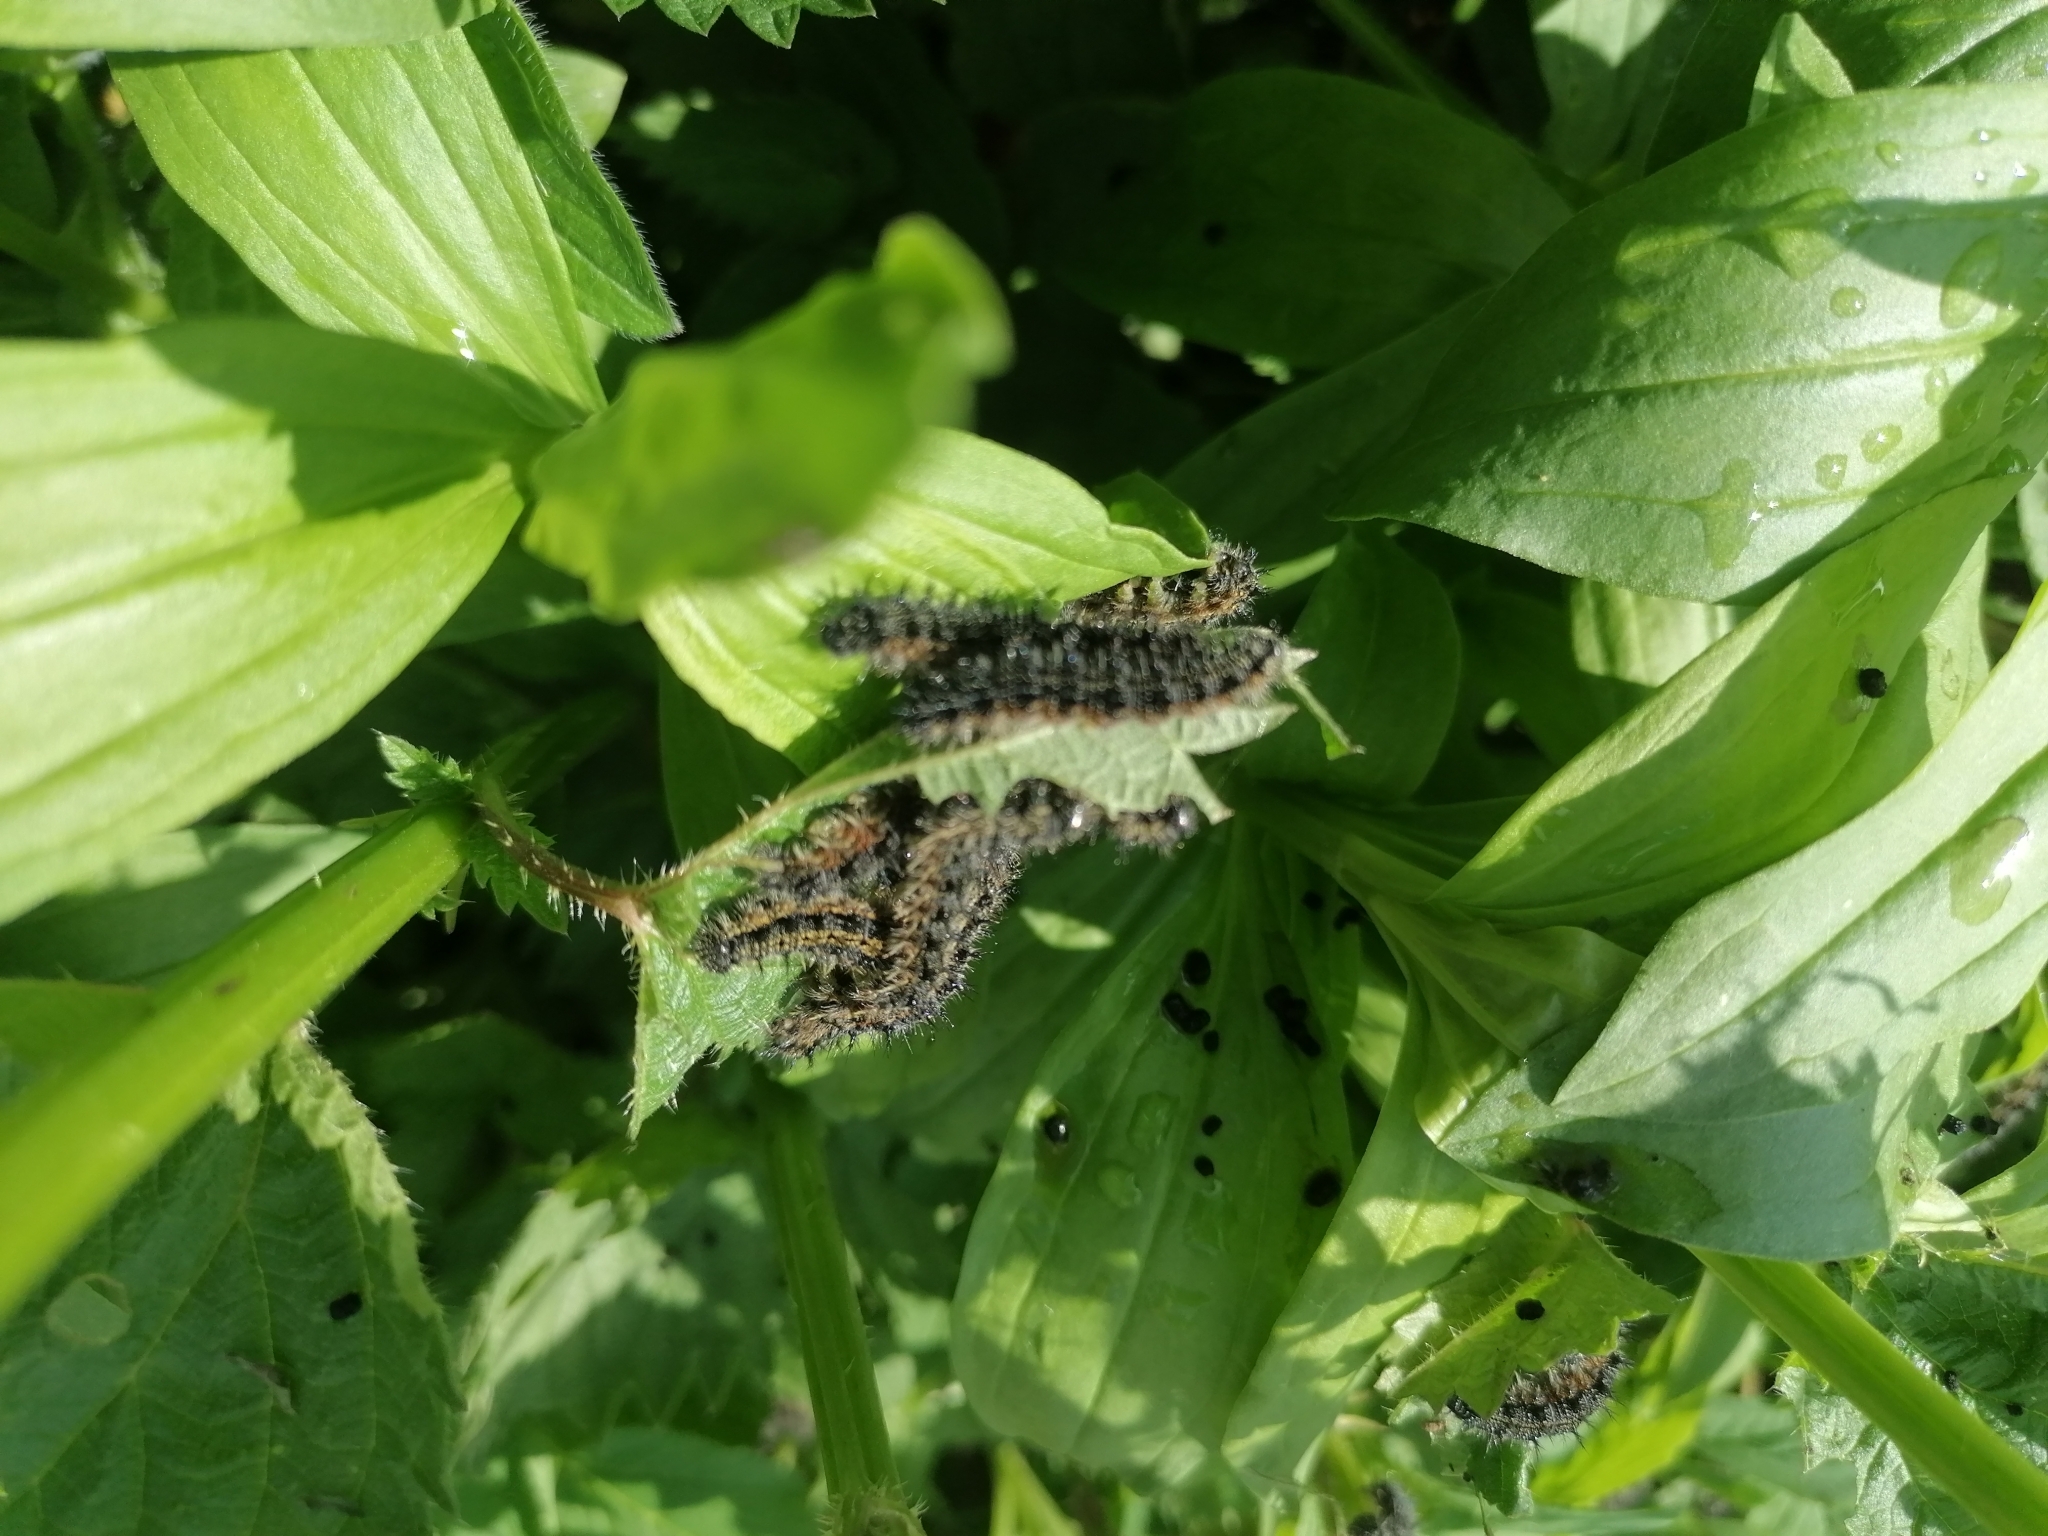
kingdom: Animalia
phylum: Arthropoda
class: Insecta
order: Lepidoptera
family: Nymphalidae
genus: Aglais
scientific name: Aglais urticae
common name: Small tortoiseshell
